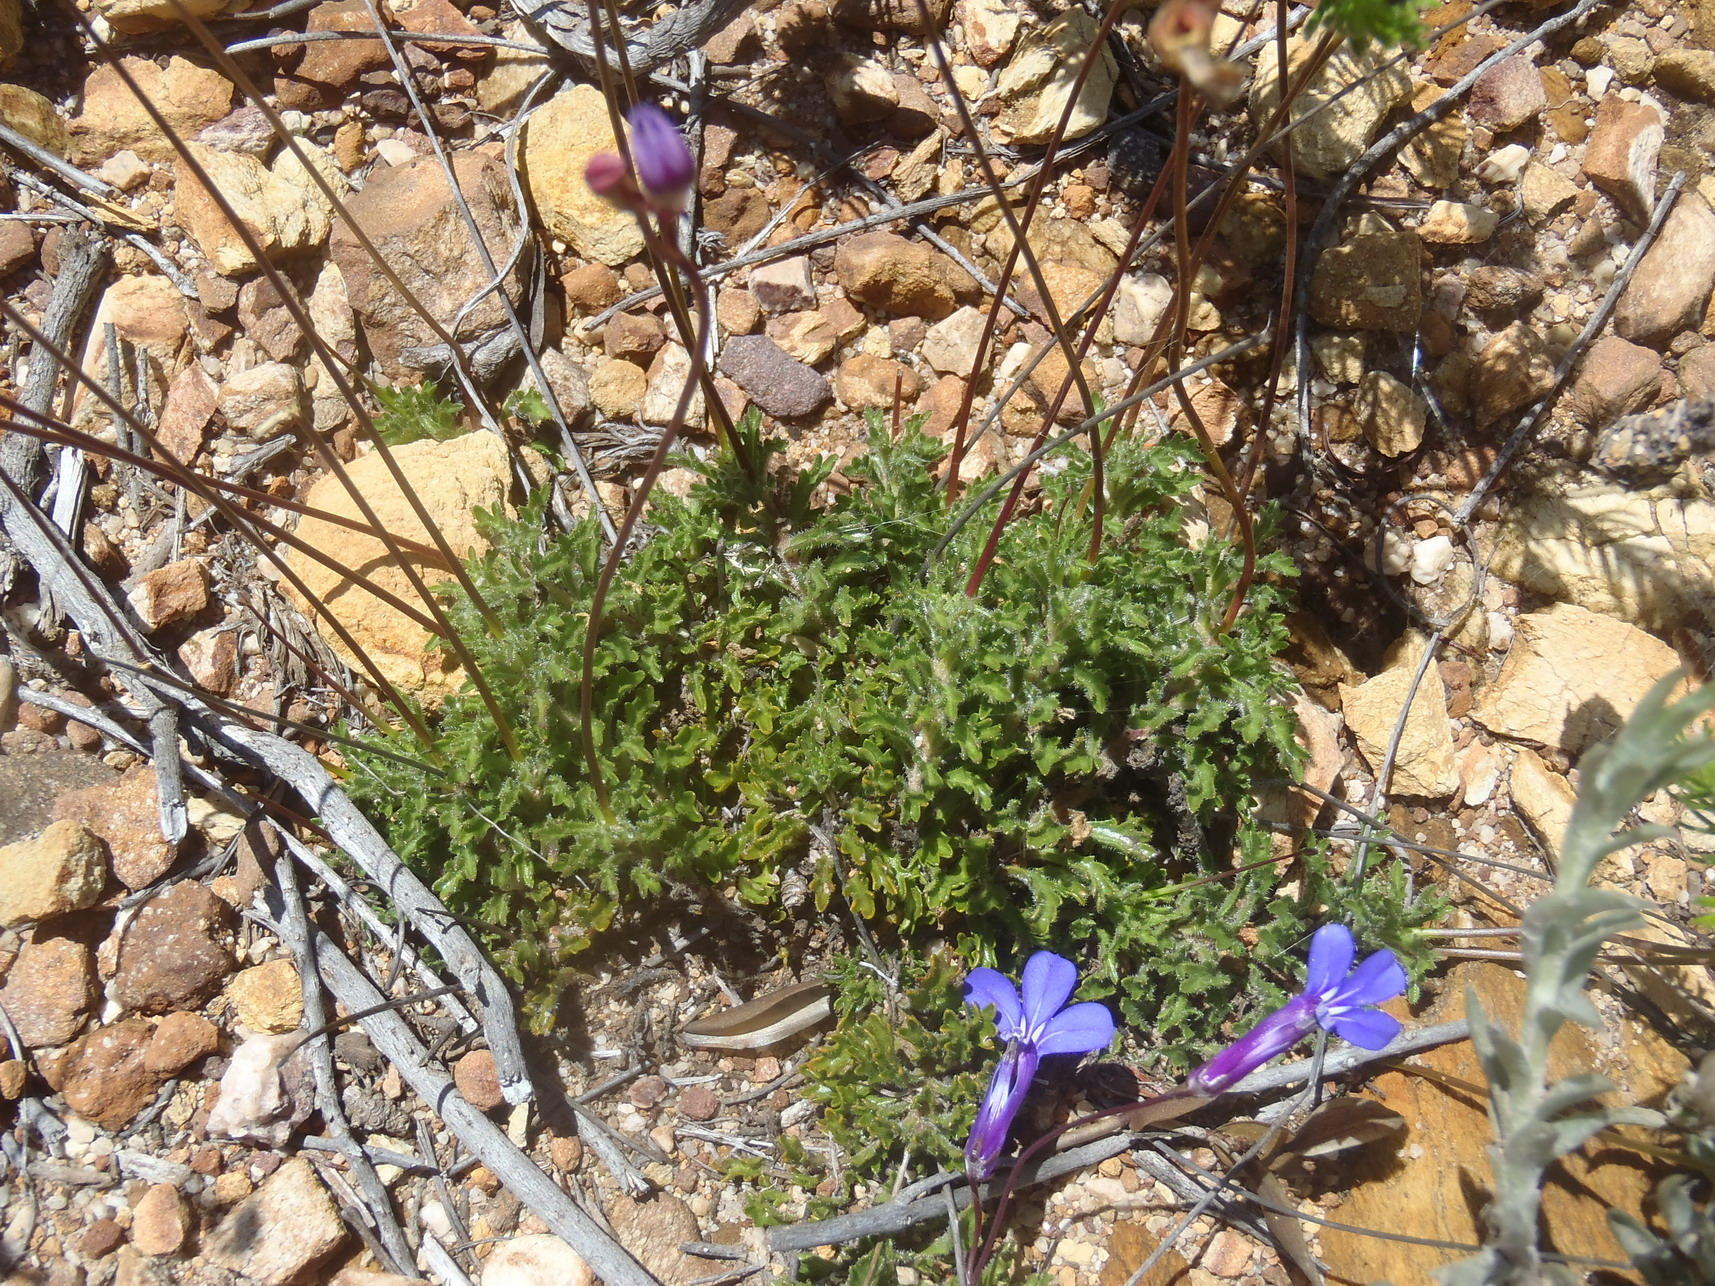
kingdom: Plantae
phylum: Tracheophyta
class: Magnoliopsida
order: Asterales
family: Campanulaceae
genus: Lobelia
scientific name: Lobelia tomentosa
